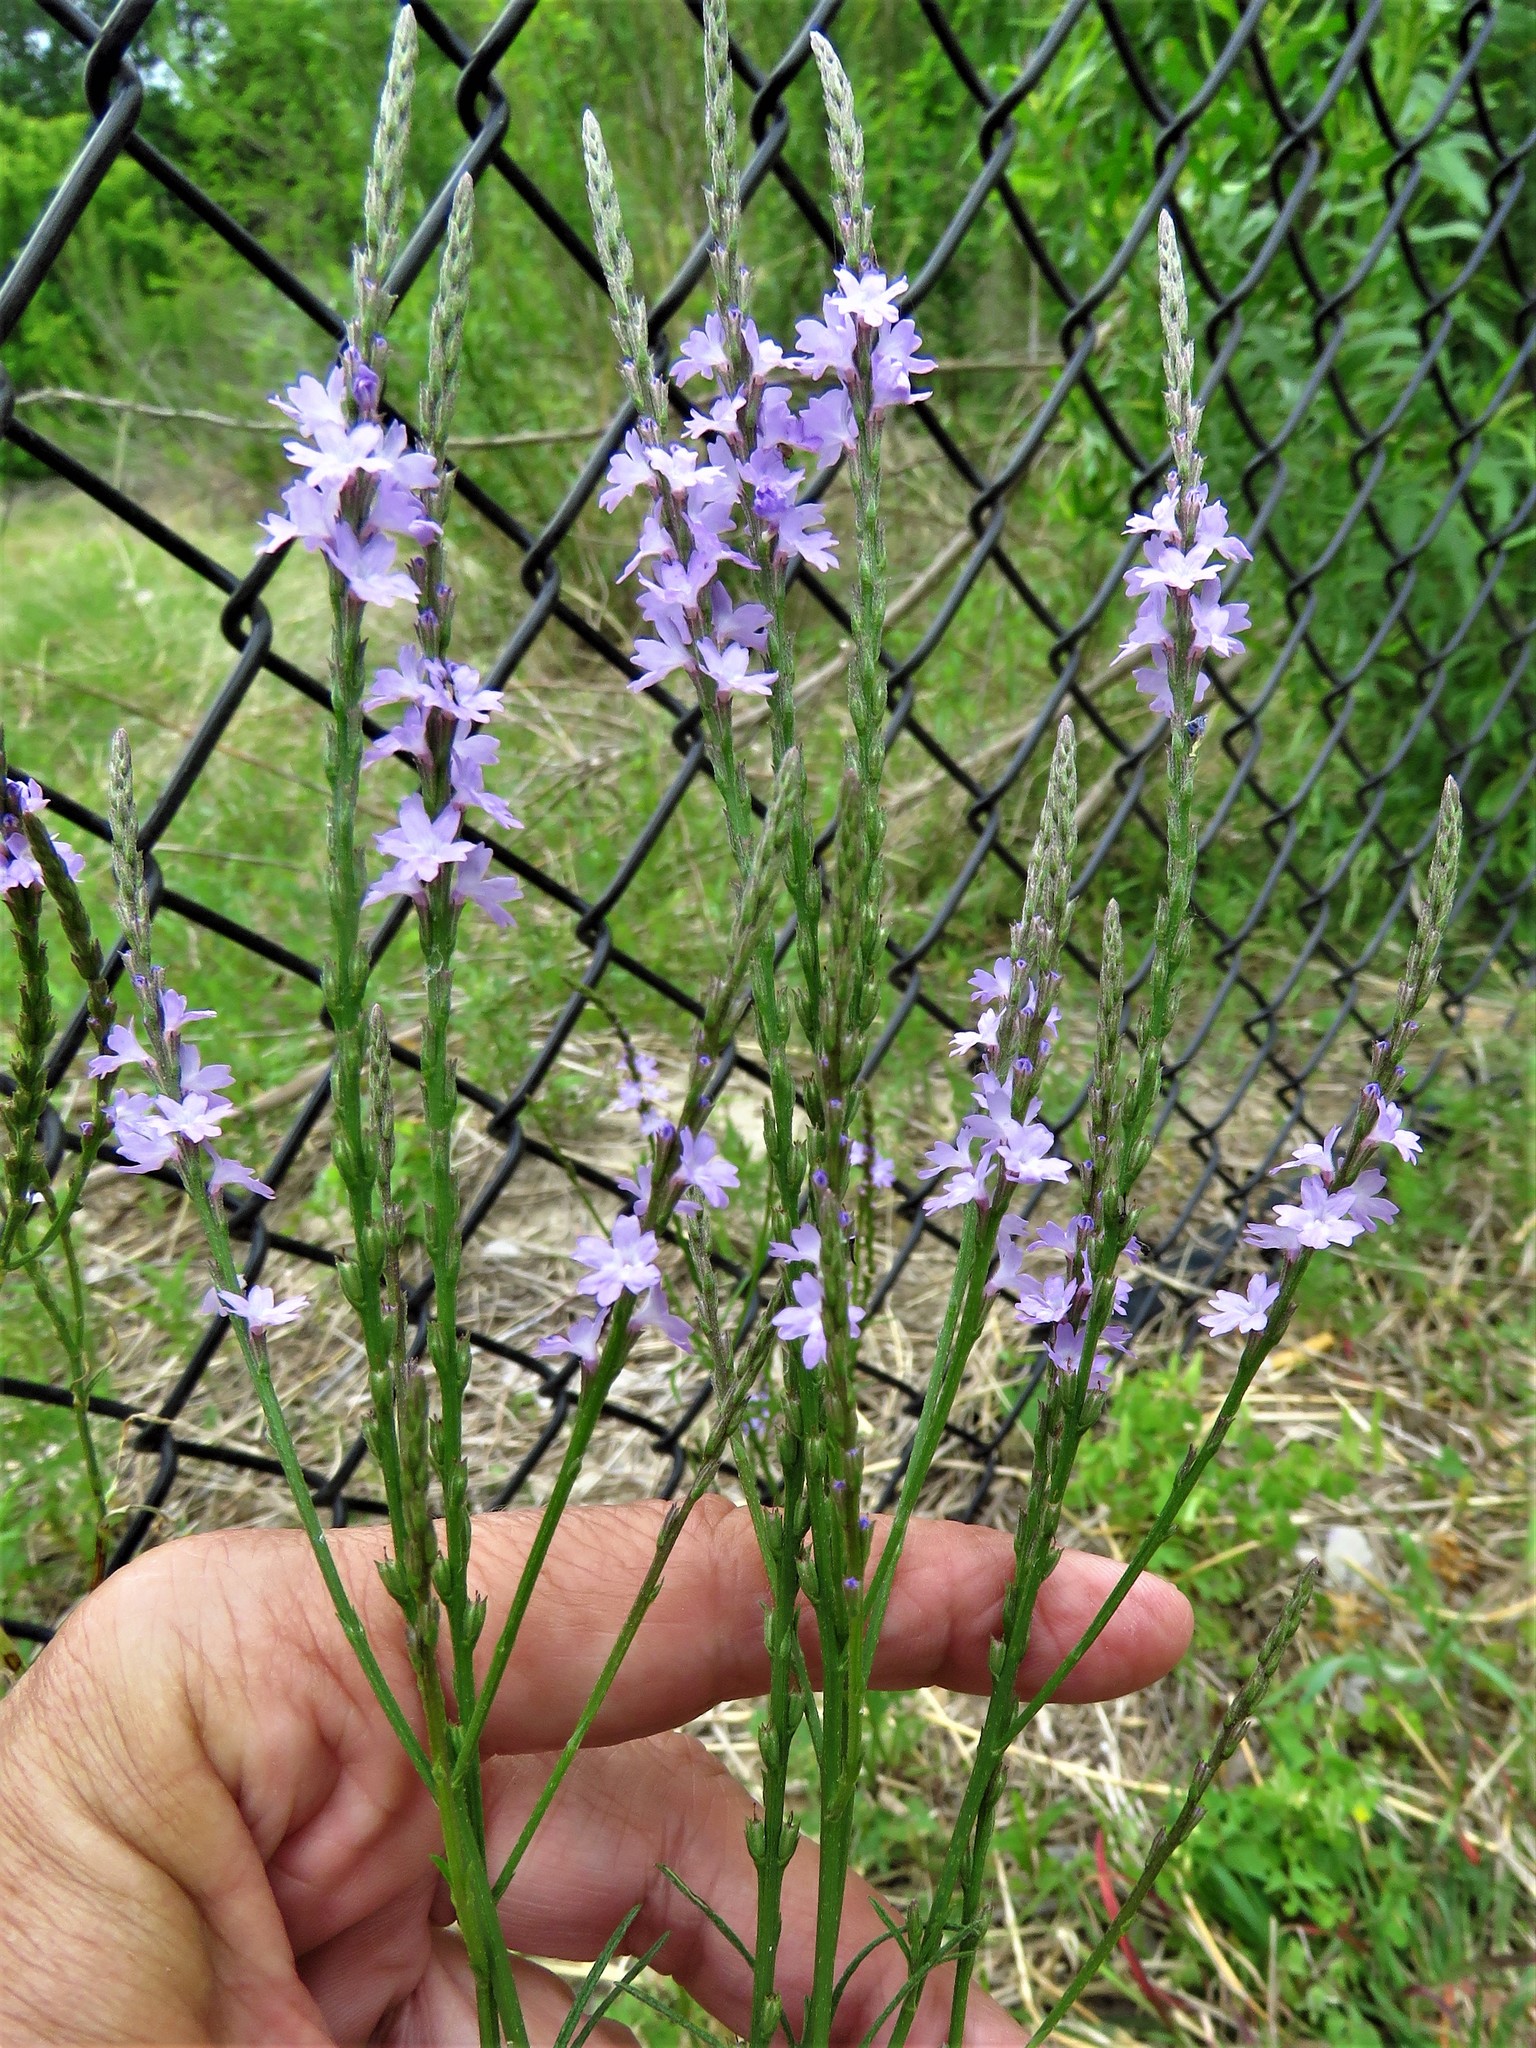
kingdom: Plantae
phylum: Tracheophyta
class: Magnoliopsida
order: Lamiales
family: Verbenaceae
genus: Verbena
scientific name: Verbena halei
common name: Texas vervain
